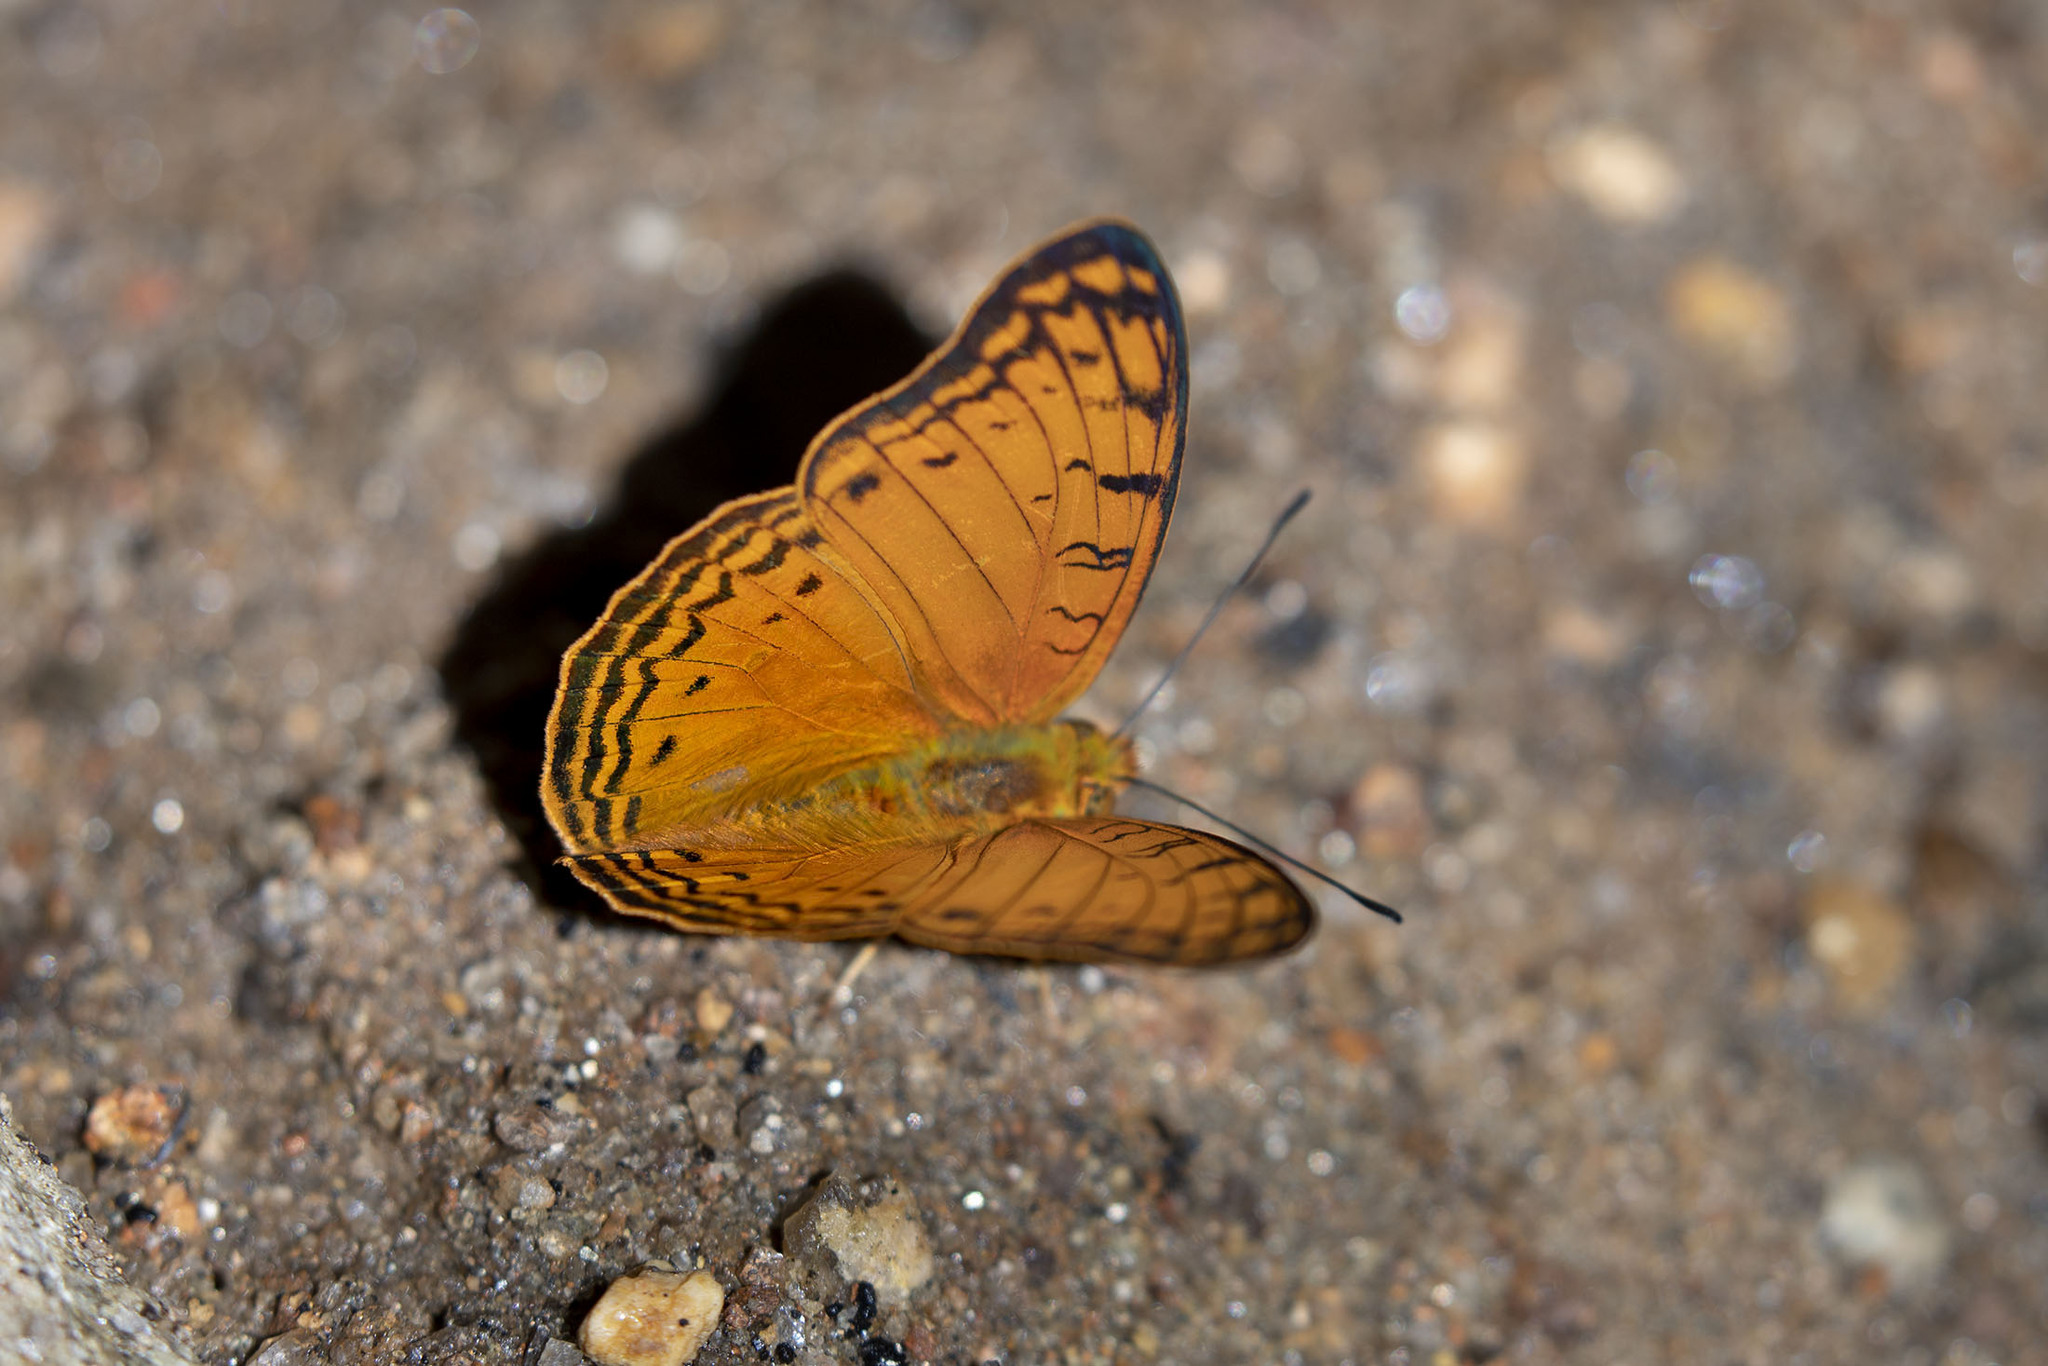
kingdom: Animalia
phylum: Arthropoda
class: Insecta
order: Lepidoptera
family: Nymphalidae
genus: Phalanta
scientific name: Phalanta madagascariensis
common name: Madagascar leopard
